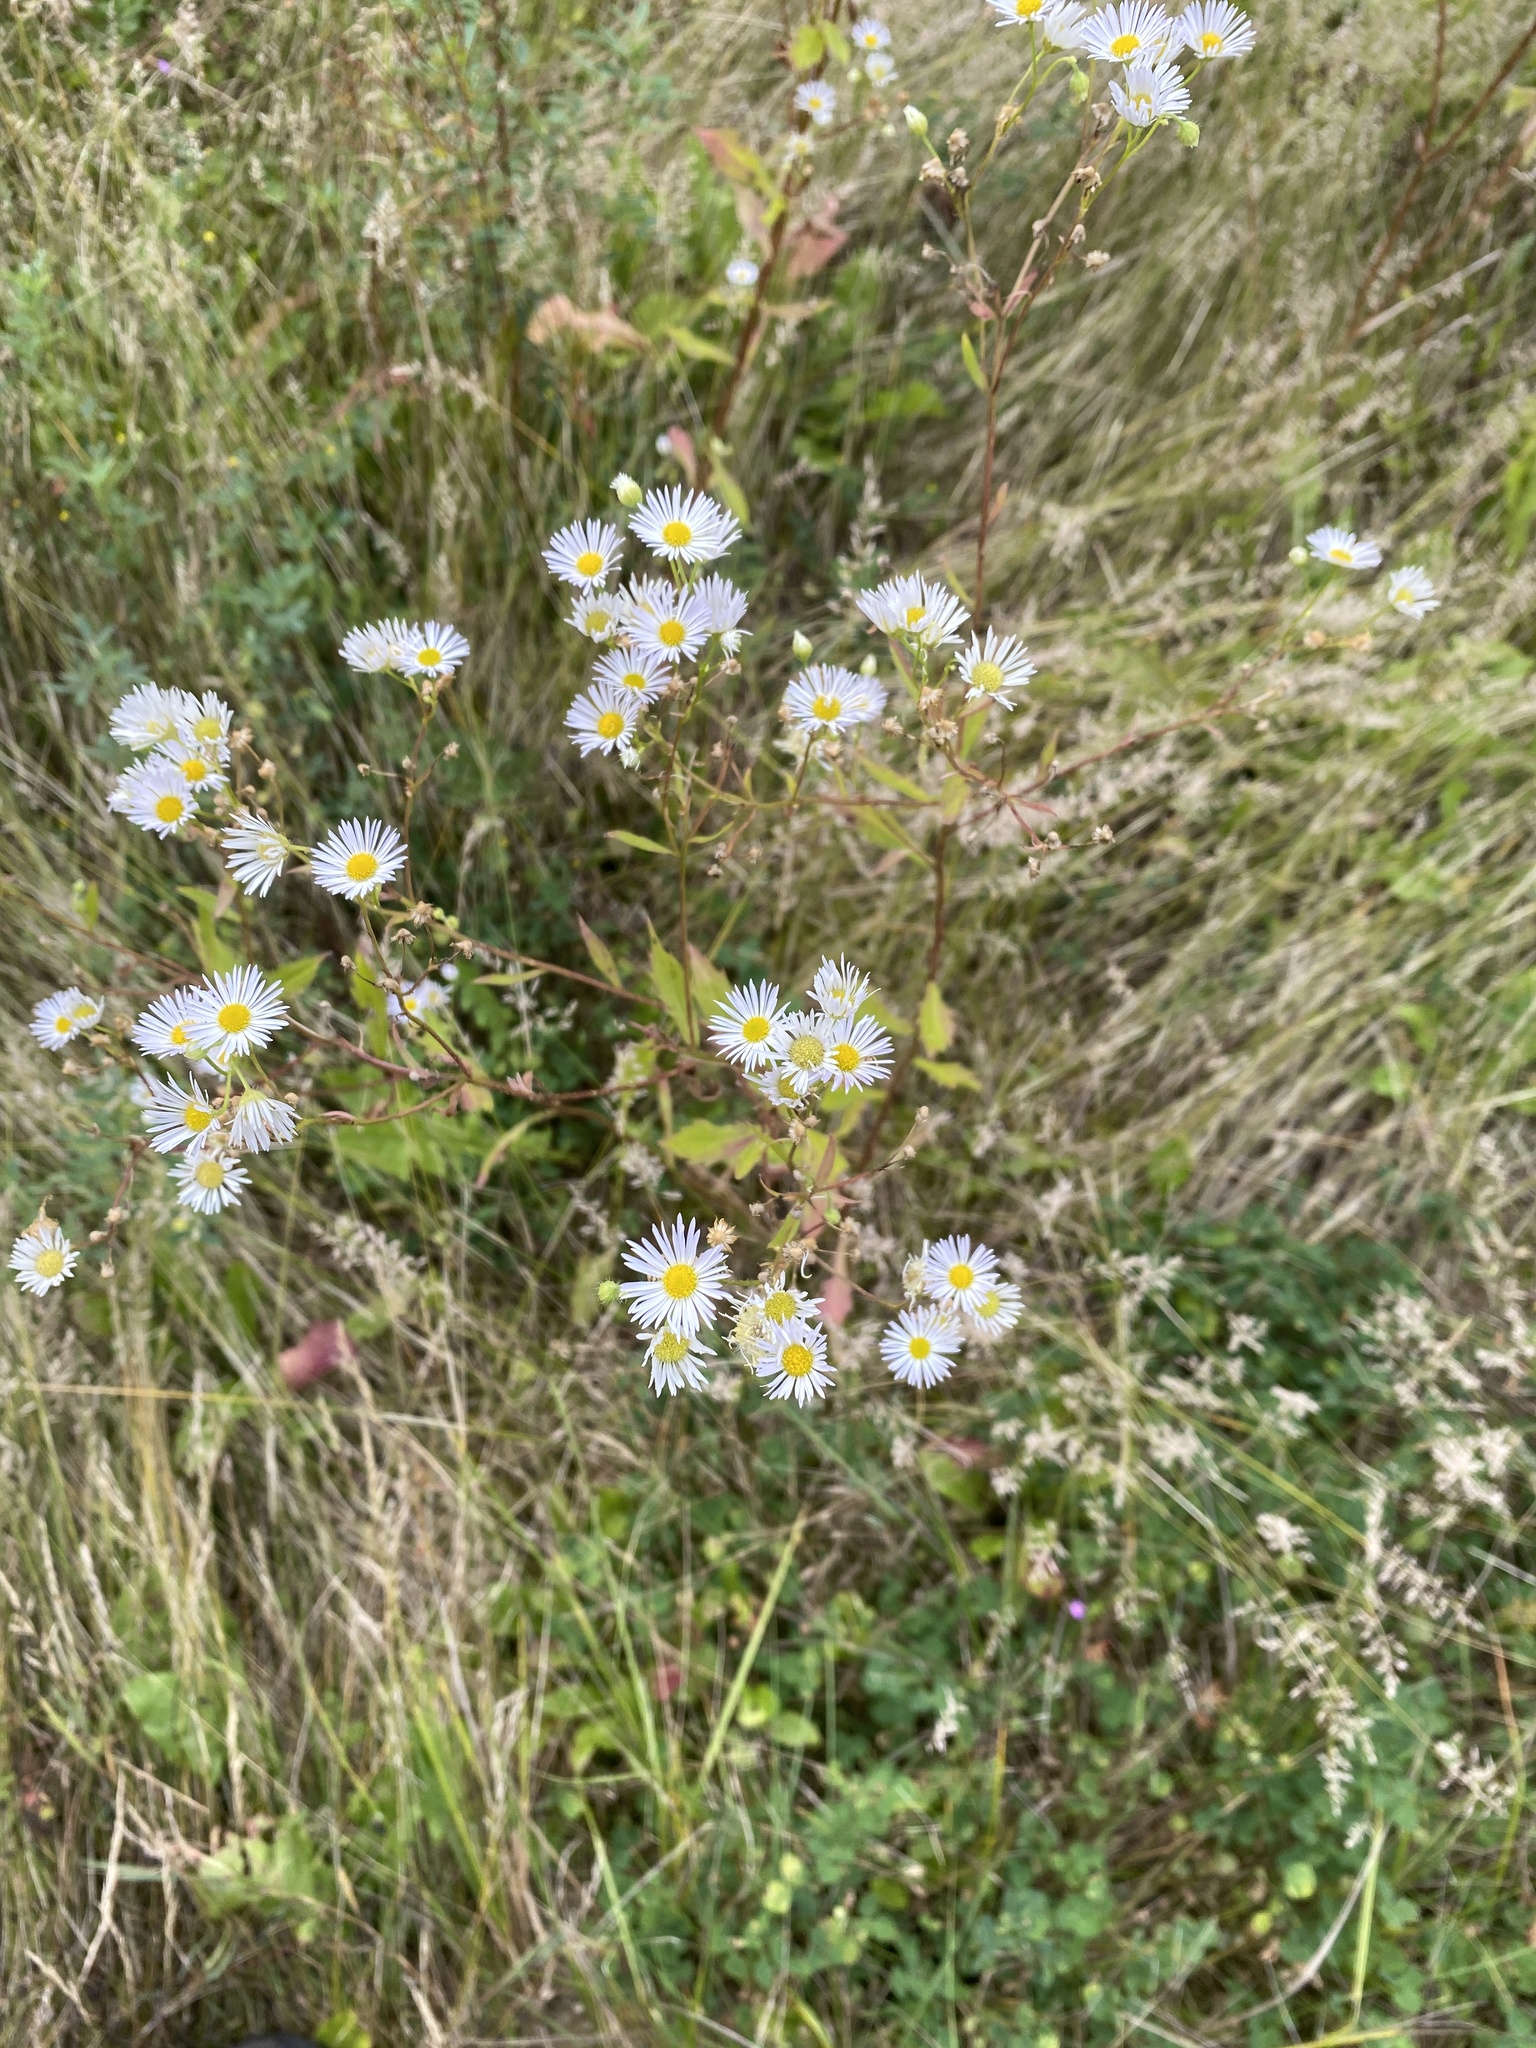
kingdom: Plantae
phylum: Tracheophyta
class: Magnoliopsida
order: Asterales
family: Asteraceae
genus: Erigeron
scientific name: Erigeron annuus
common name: Tall fleabane
